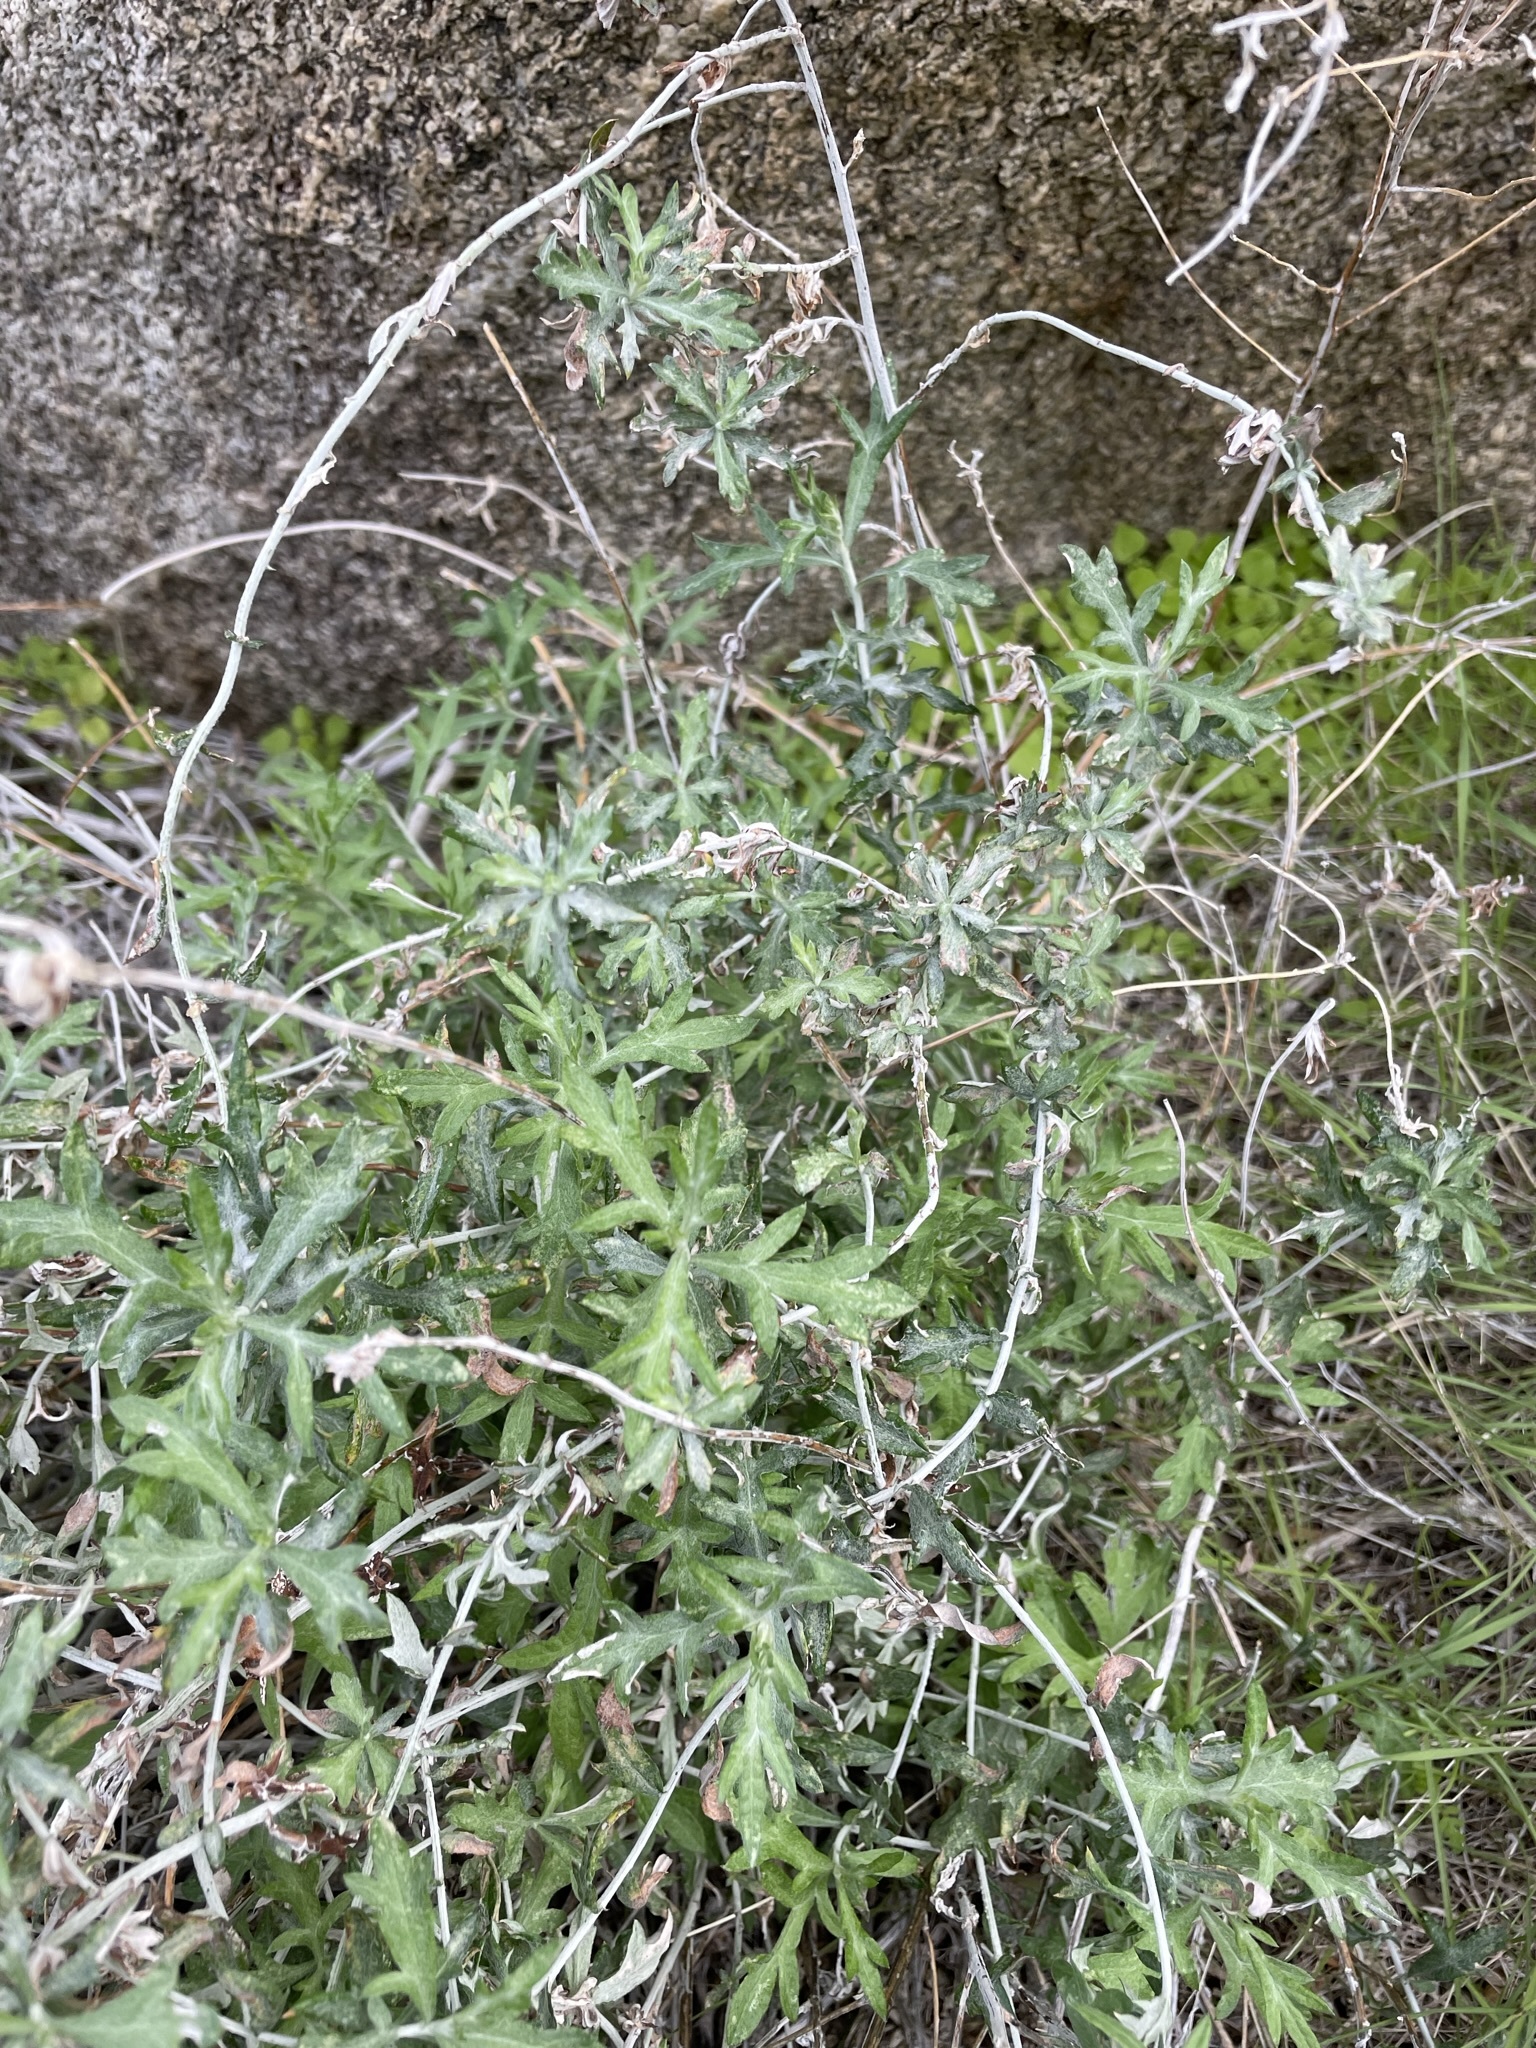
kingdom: Plantae
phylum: Tracheophyta
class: Magnoliopsida
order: Asterales
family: Asteraceae
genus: Eriophyllum
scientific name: Eriophyllum confertiflorum
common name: Golden-yarrow
